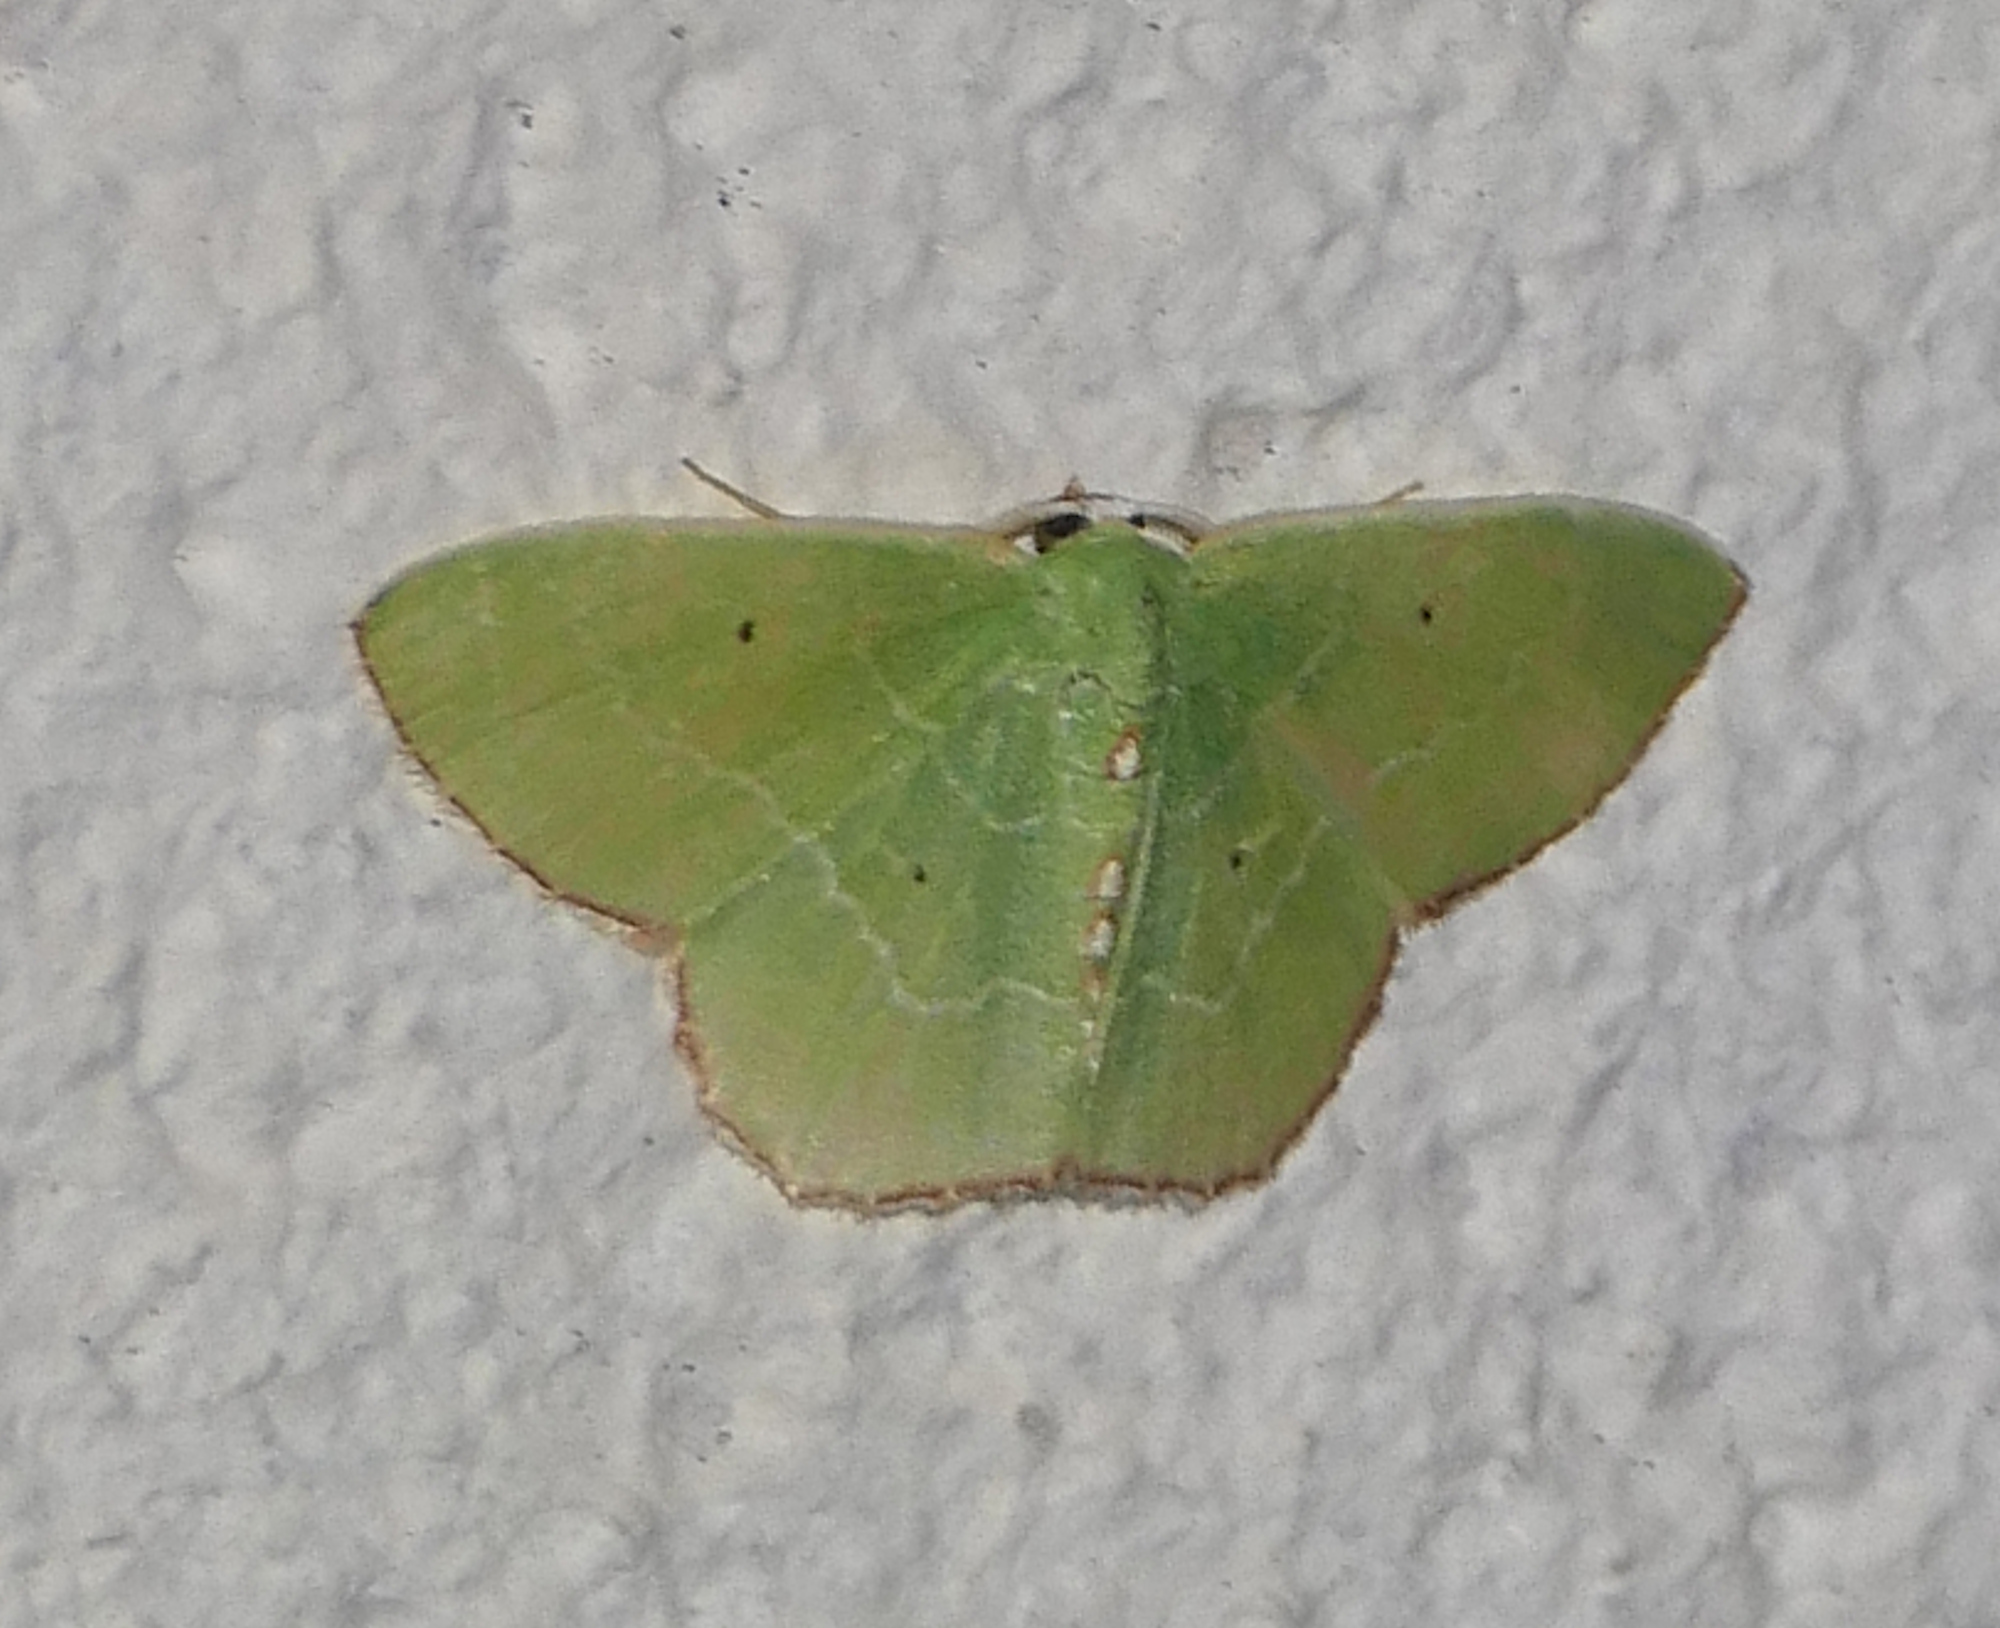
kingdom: Animalia
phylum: Arthropoda
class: Insecta
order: Lepidoptera
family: Geometridae
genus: Nemoria
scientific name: Nemoria lixaria
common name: Red-bordered emerald
